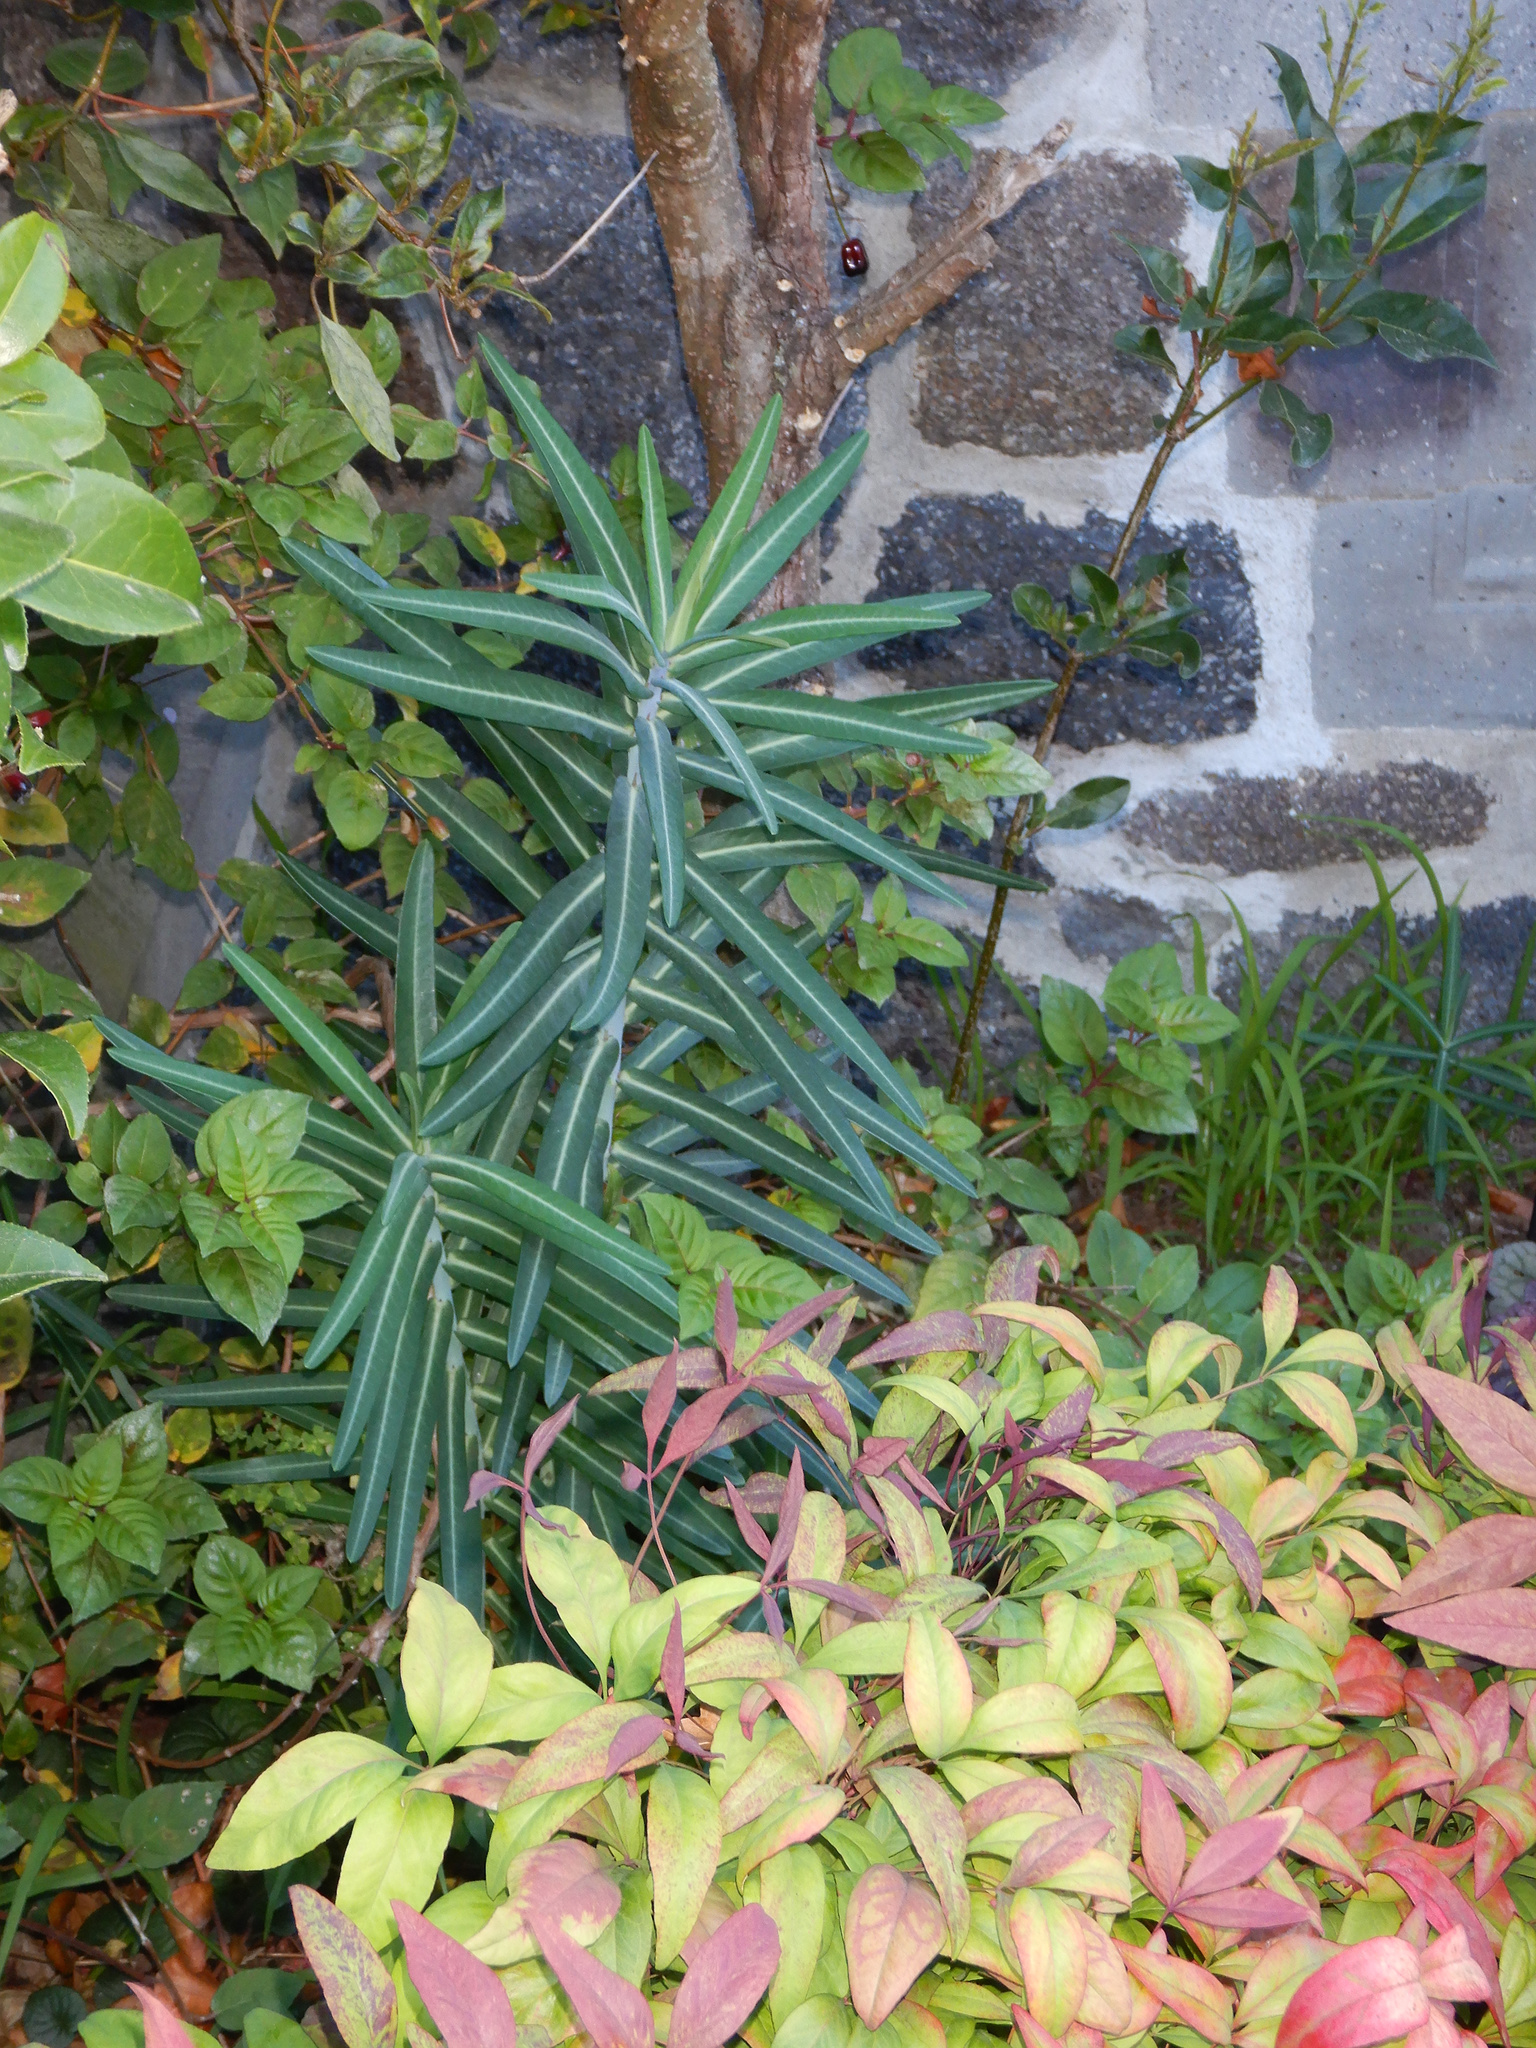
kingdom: Plantae
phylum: Tracheophyta
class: Magnoliopsida
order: Malpighiales
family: Euphorbiaceae
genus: Euphorbia
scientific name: Euphorbia lathyris
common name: Caper spurge
